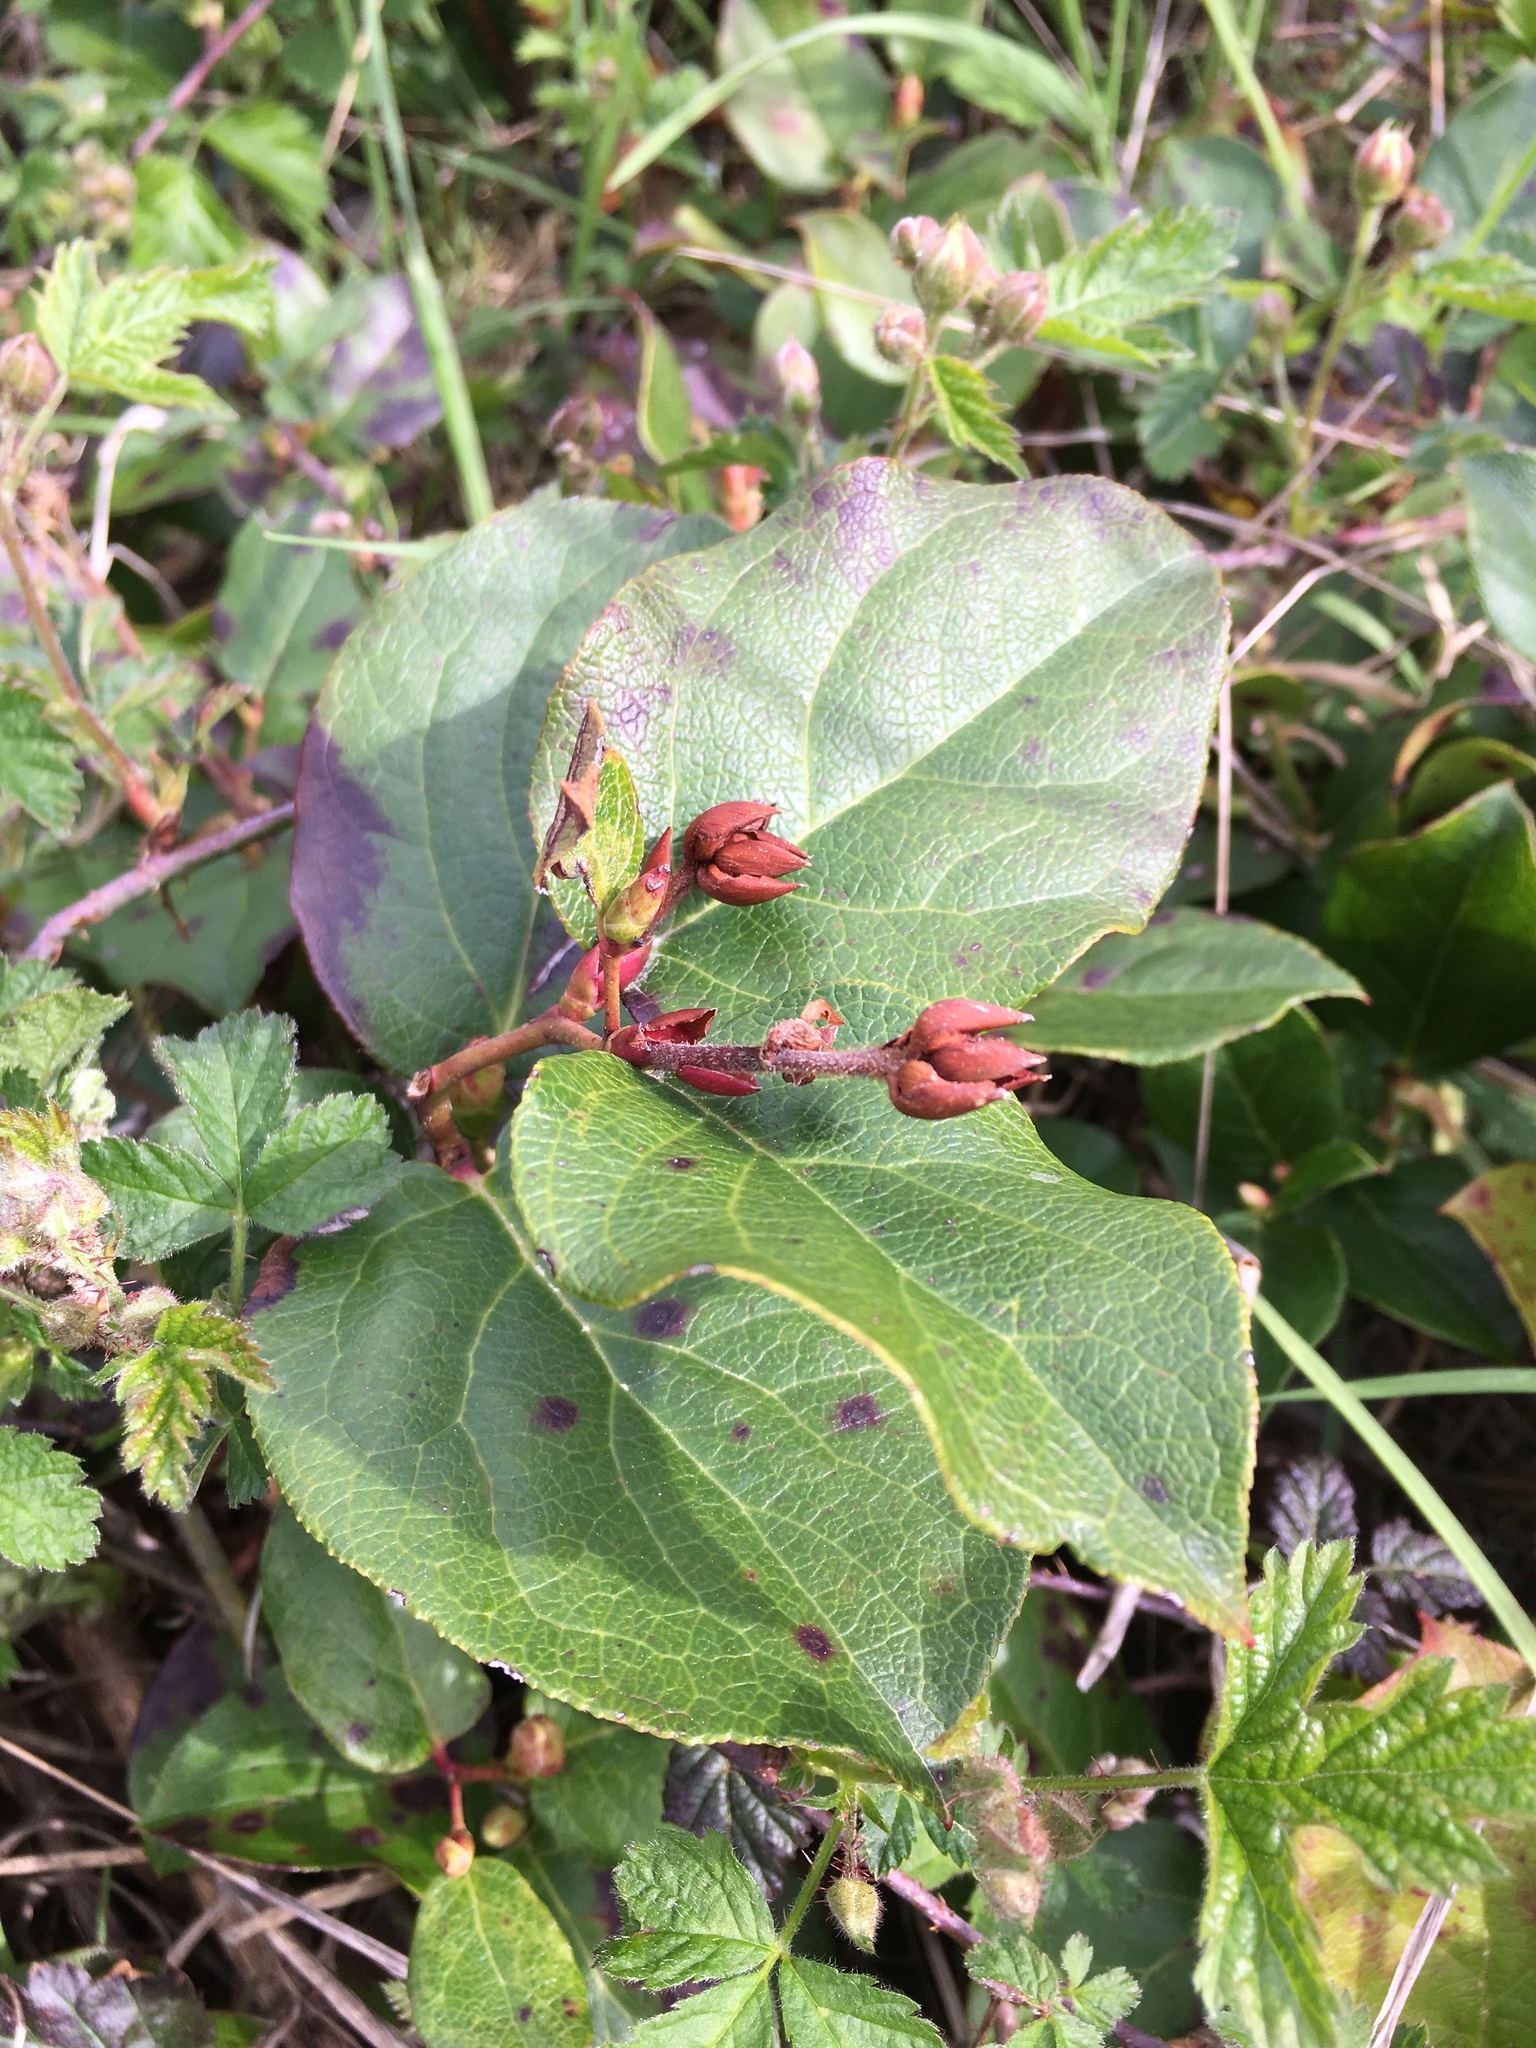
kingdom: Plantae
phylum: Tracheophyta
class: Magnoliopsida
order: Ericales
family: Ericaceae
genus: Gaultheria
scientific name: Gaultheria shallon
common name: Shallon
